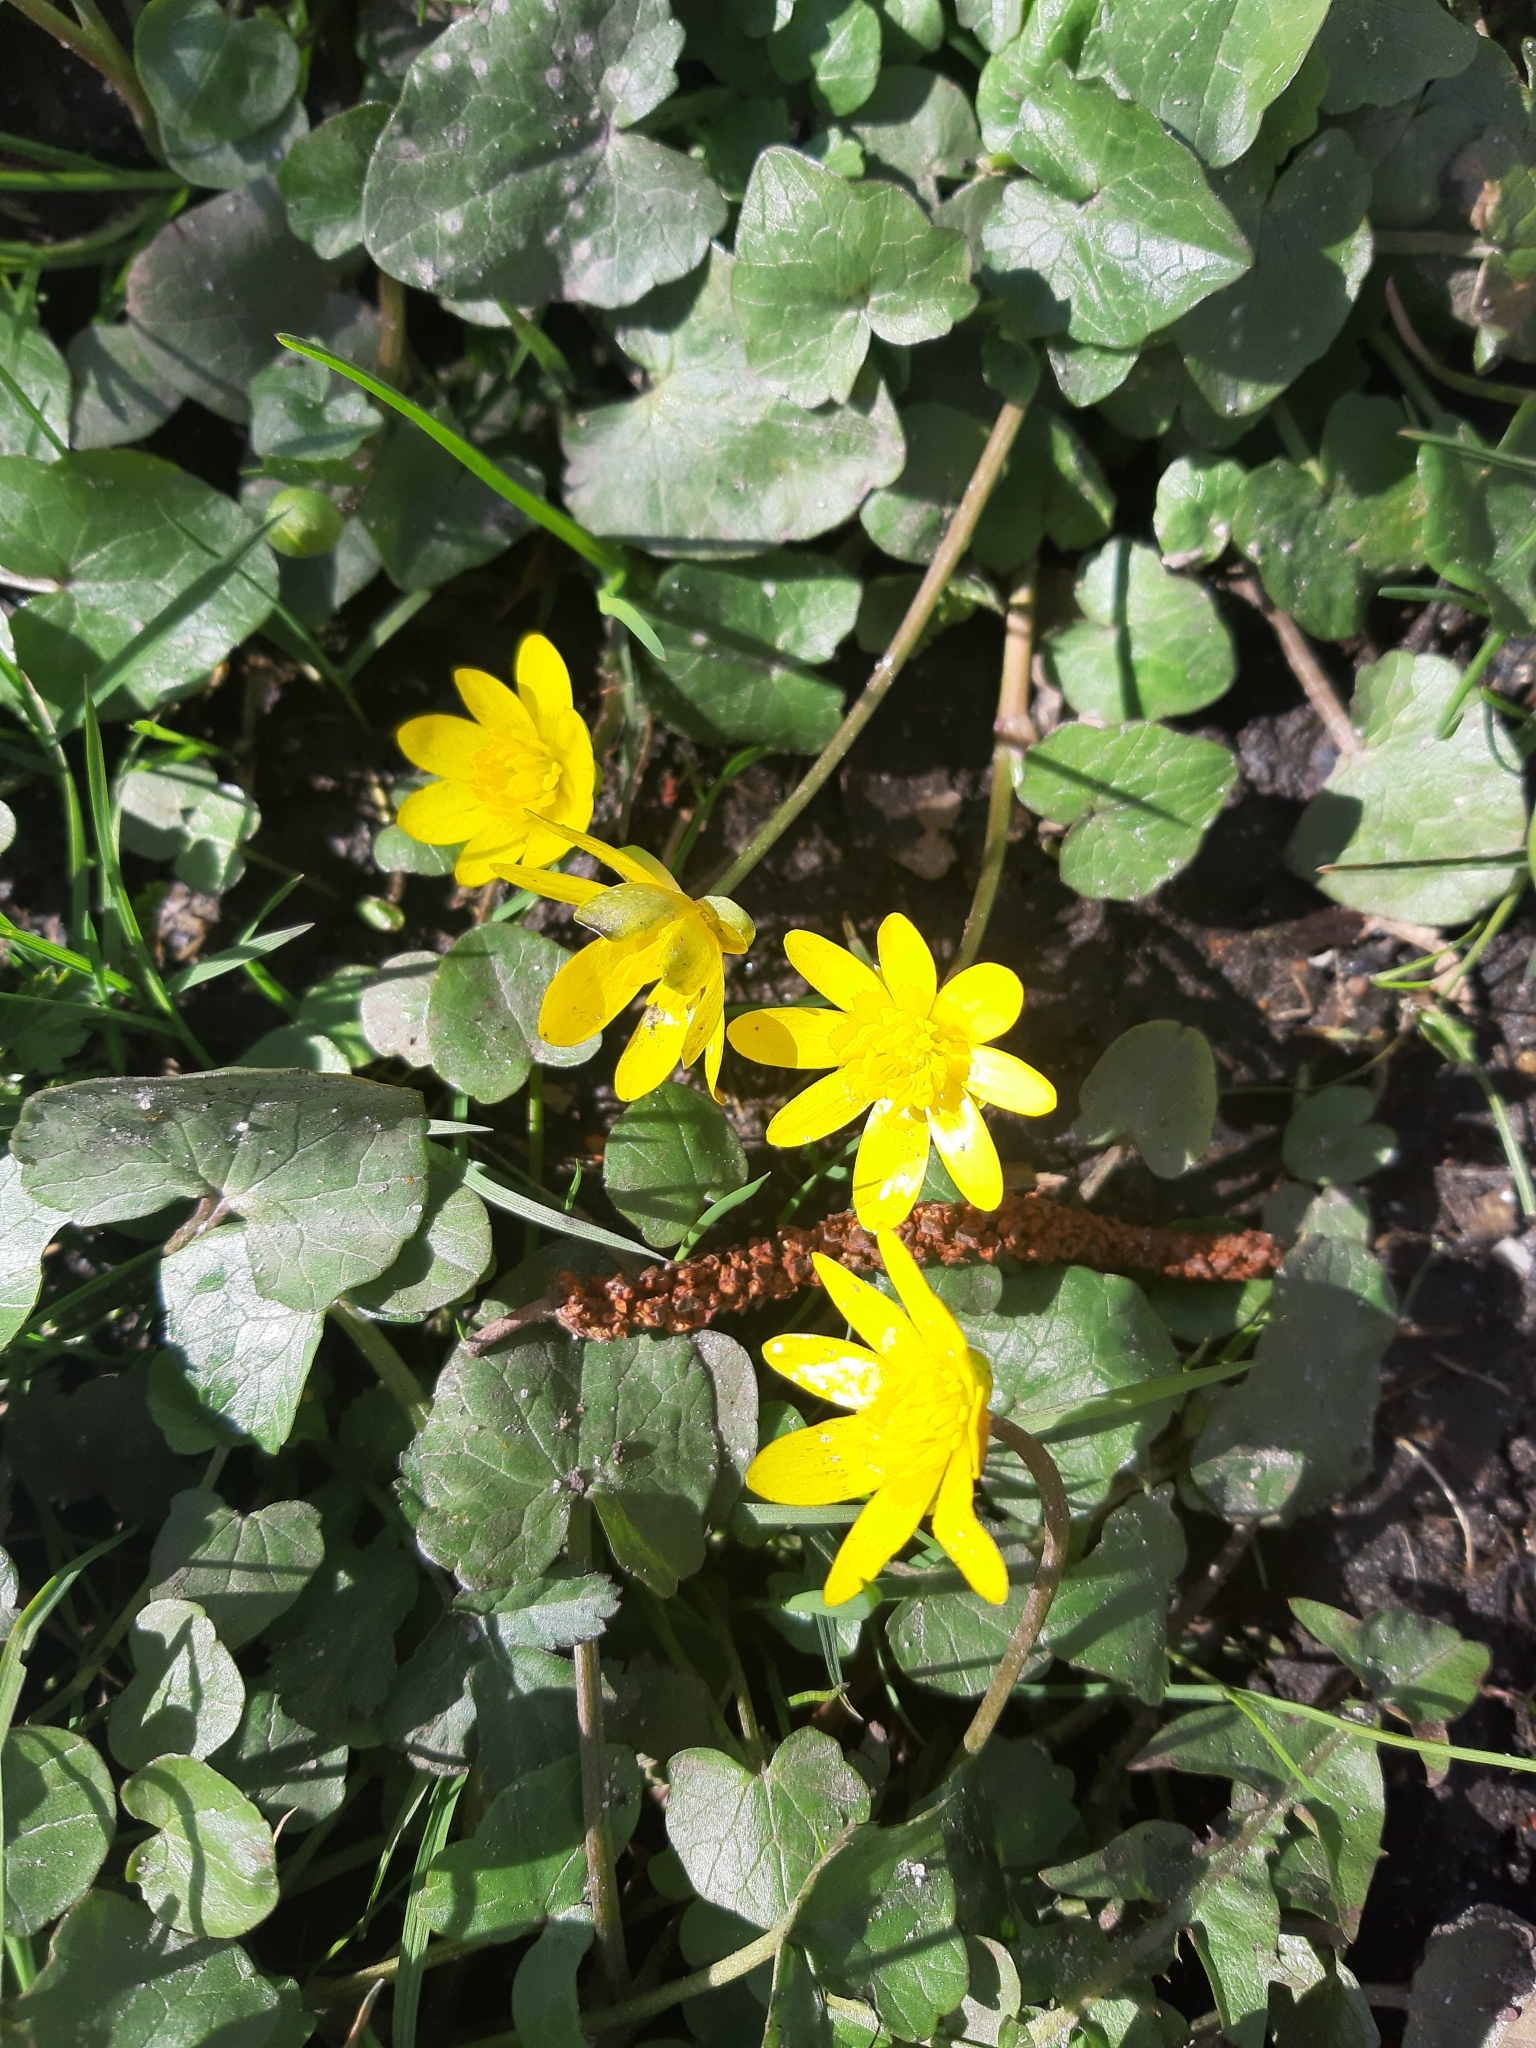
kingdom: Plantae
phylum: Tracheophyta
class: Magnoliopsida
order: Ranunculales
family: Ranunculaceae
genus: Ficaria
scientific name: Ficaria verna
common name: Lesser celandine
